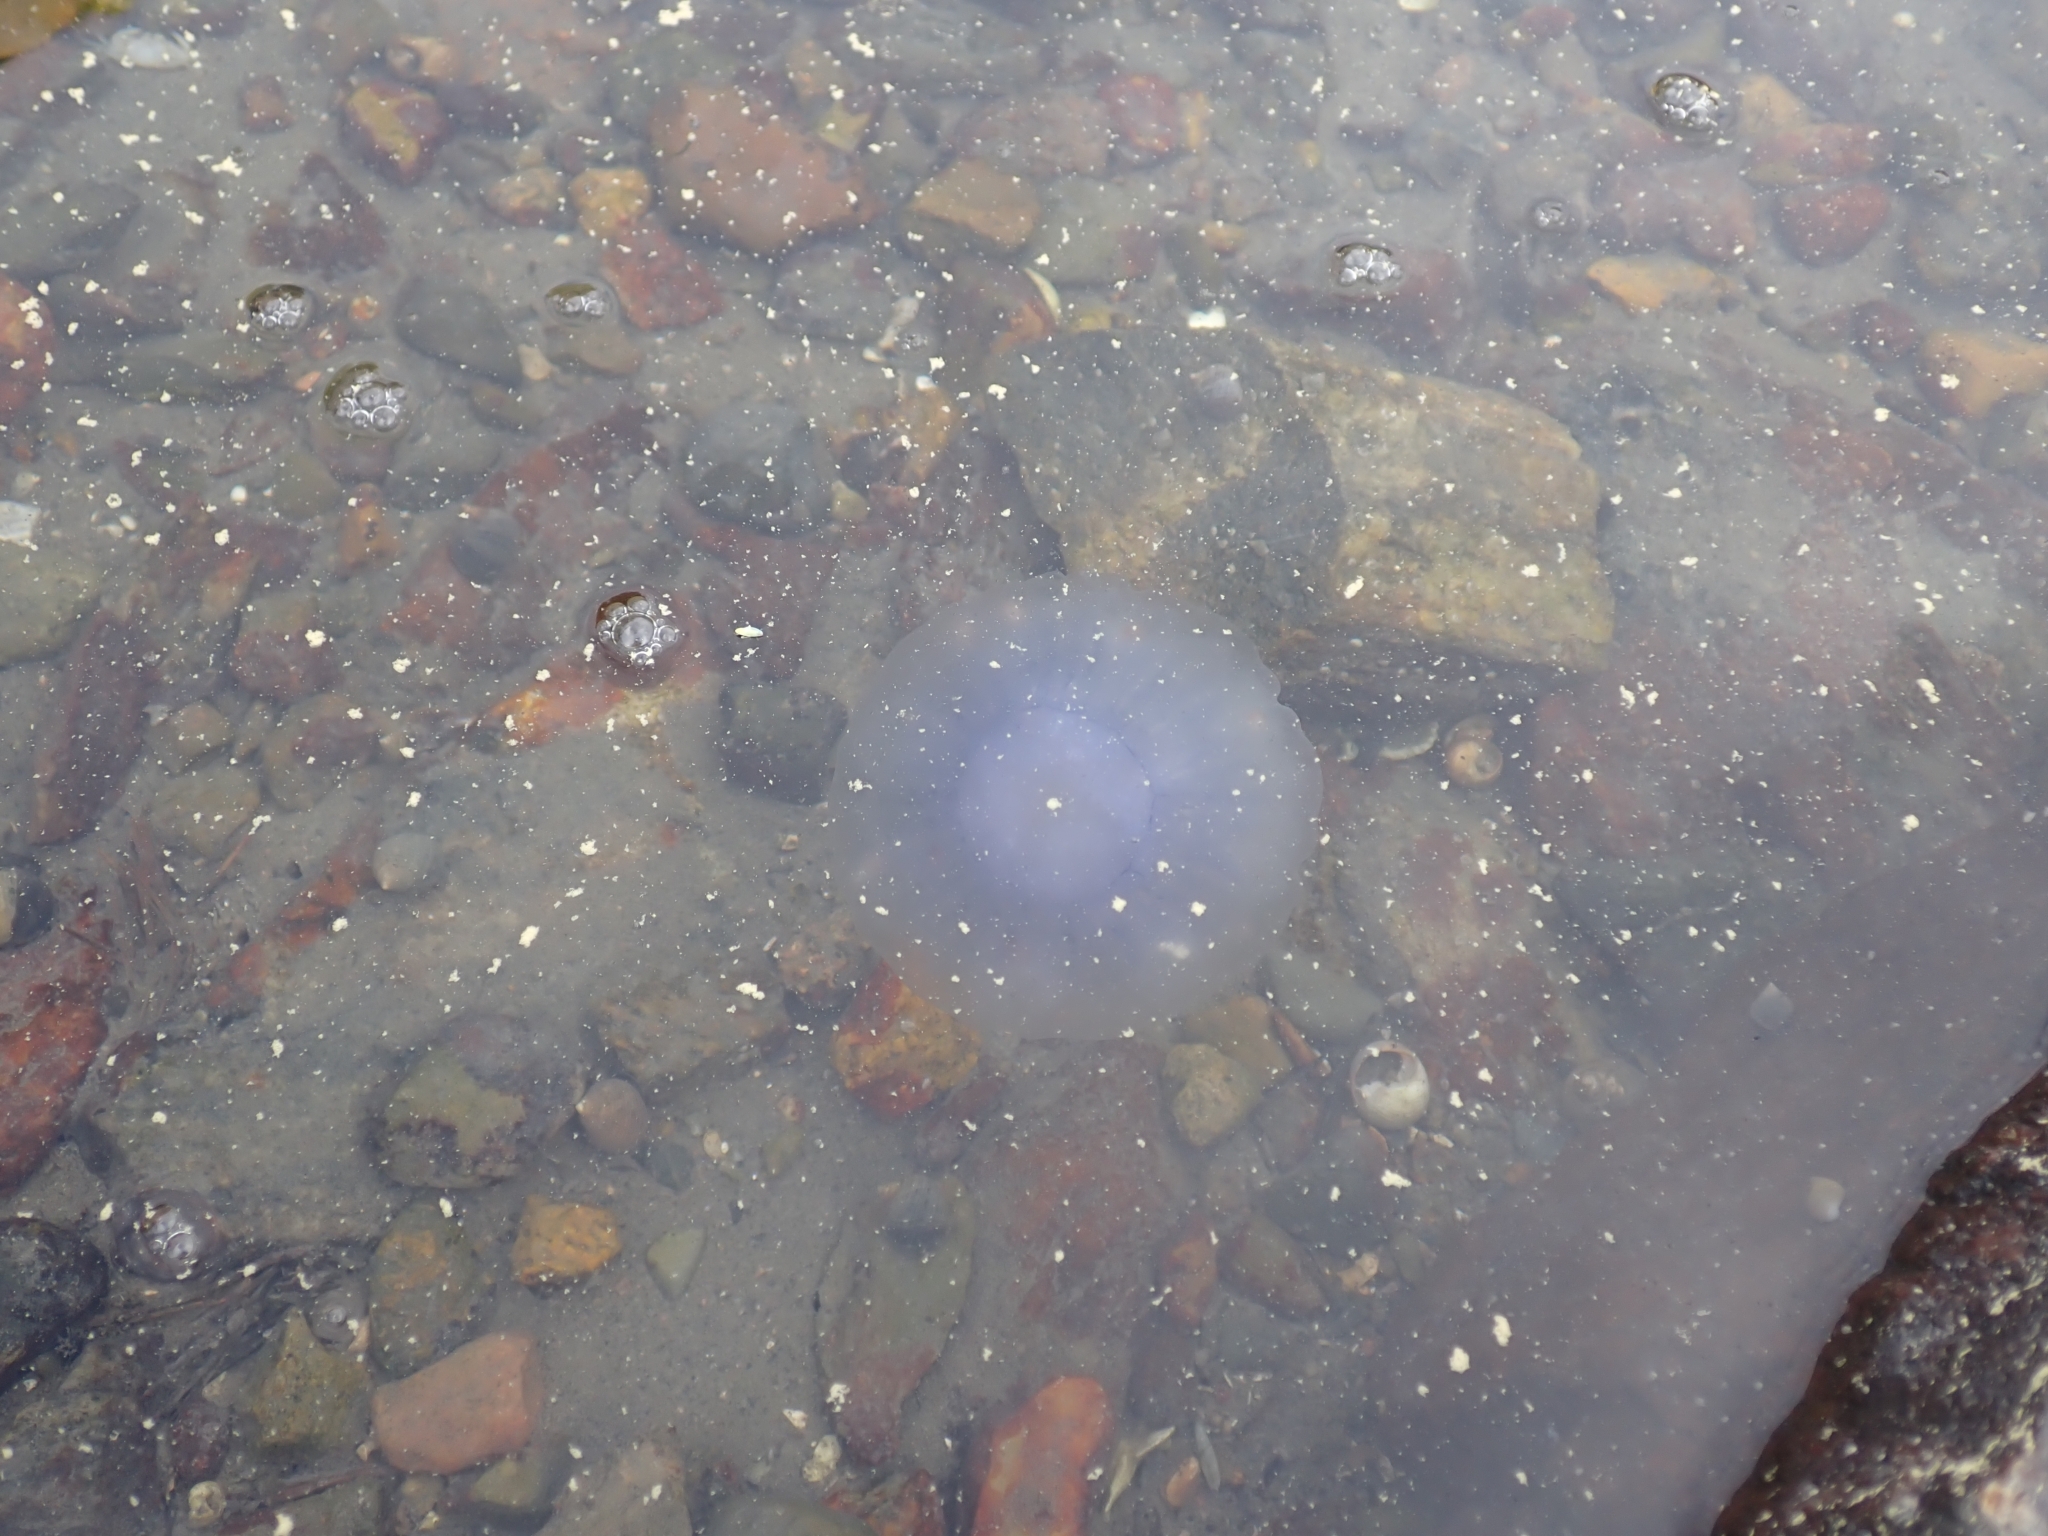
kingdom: Animalia
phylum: Cnidaria
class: Scyphozoa
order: Semaeostomeae
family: Cyaneidae
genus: Cyanea
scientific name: Cyanea lamarckii
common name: Blue jellyfish
